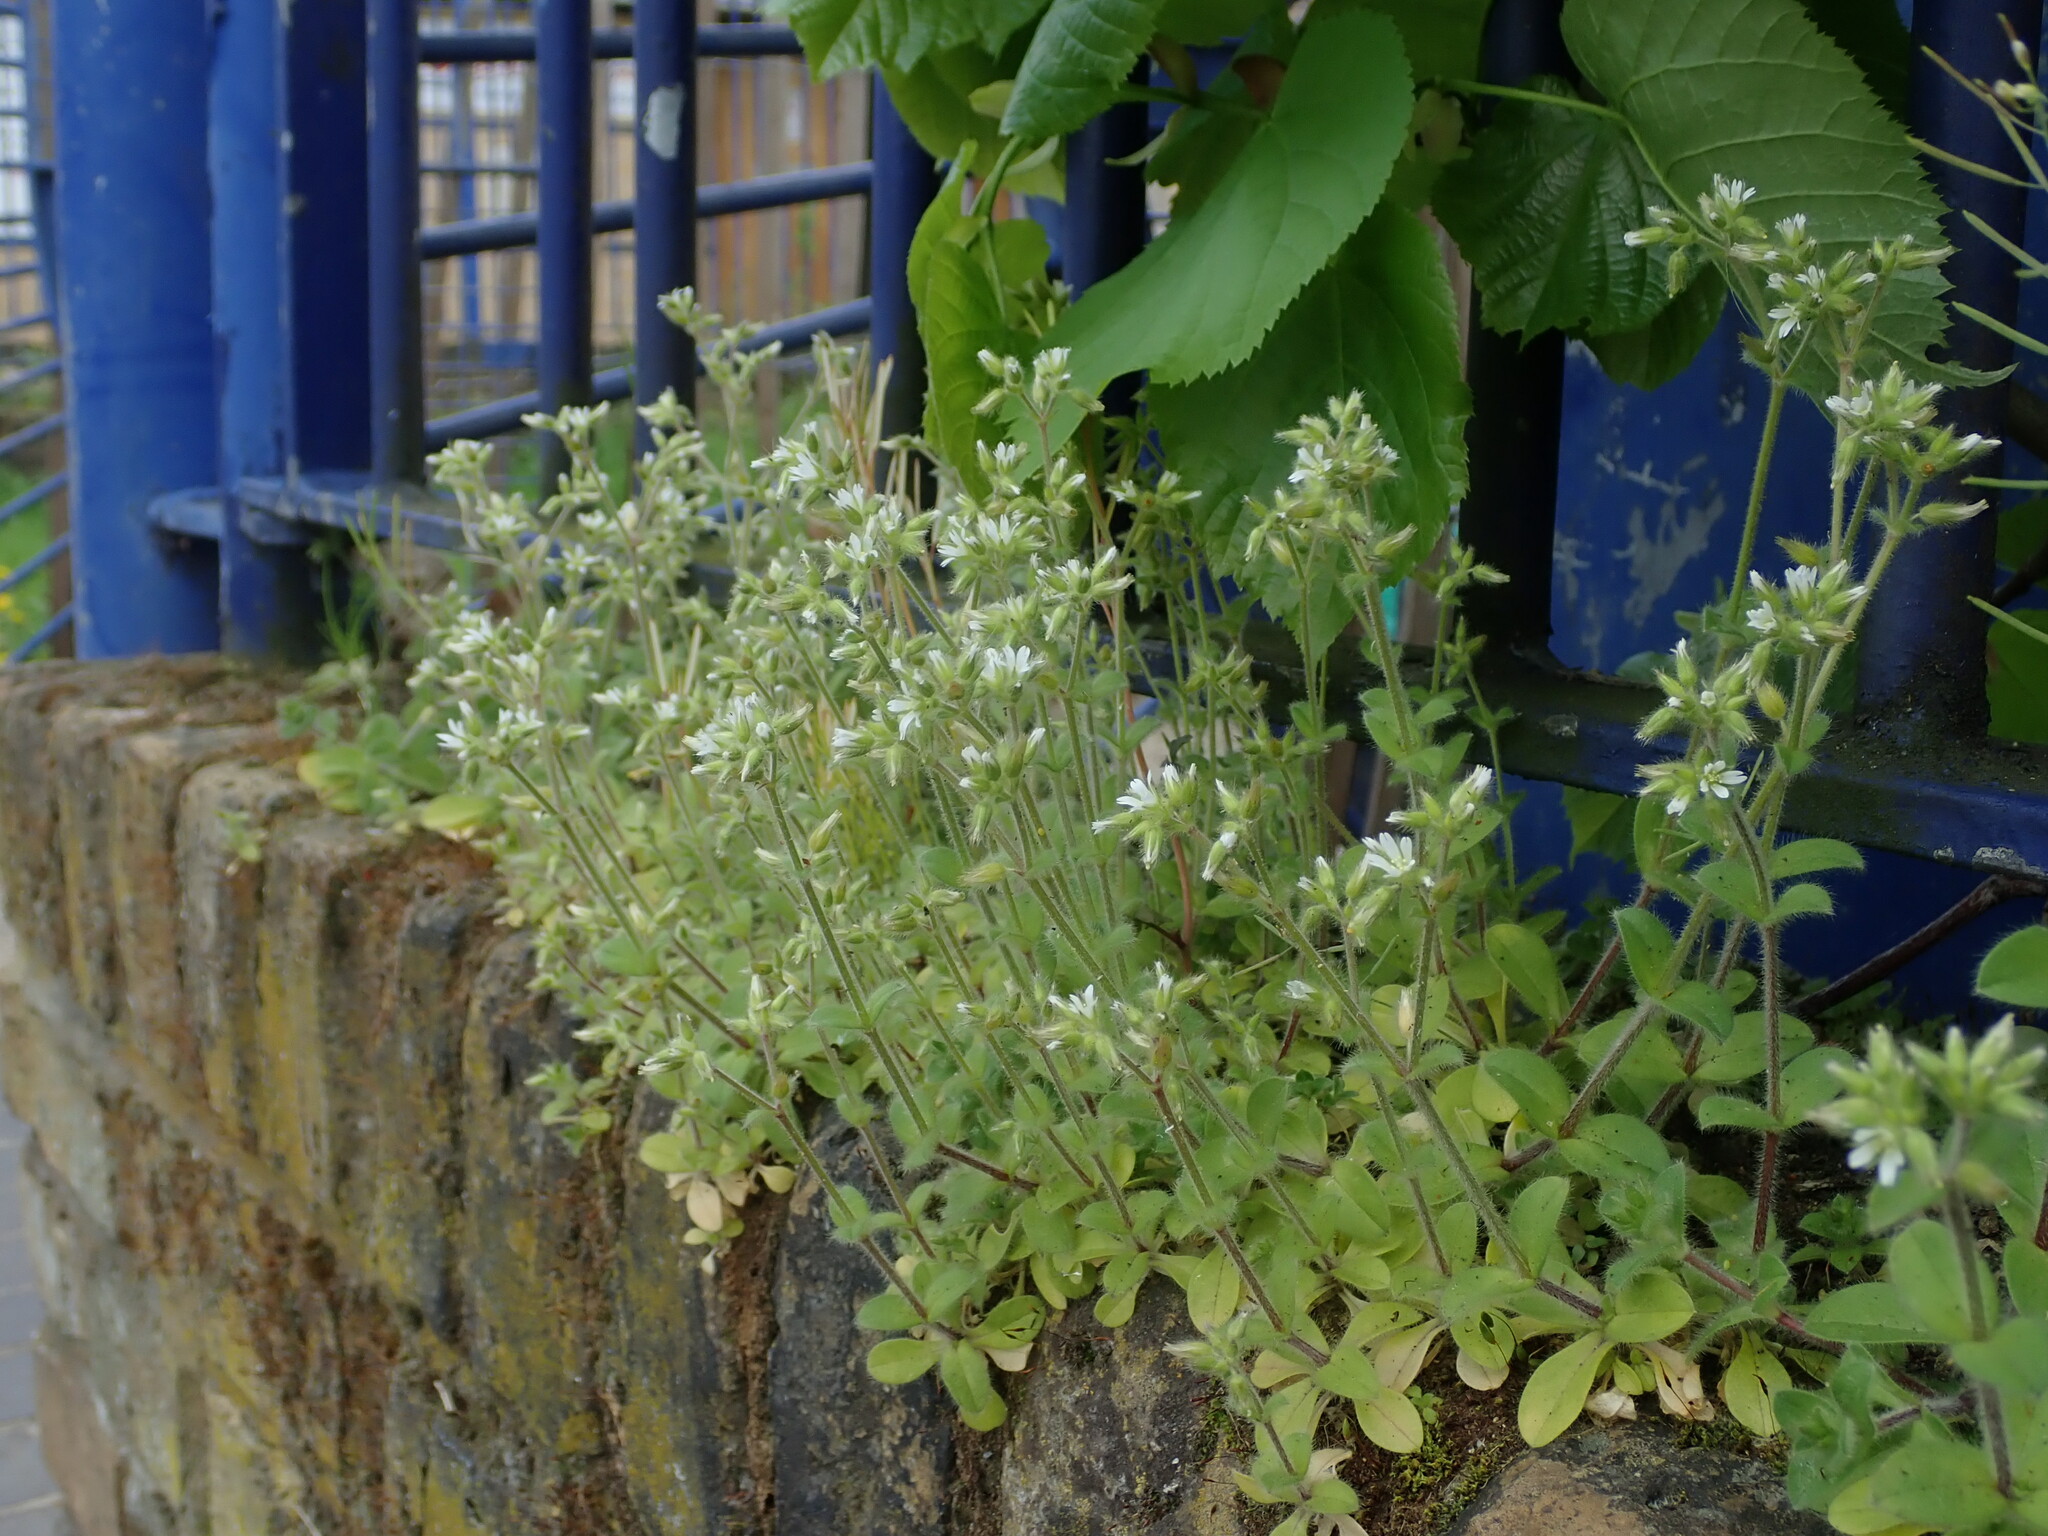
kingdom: Plantae
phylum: Tracheophyta
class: Magnoliopsida
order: Caryophyllales
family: Caryophyllaceae
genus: Cerastium
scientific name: Cerastium glomeratum
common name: Sticky chickweed
